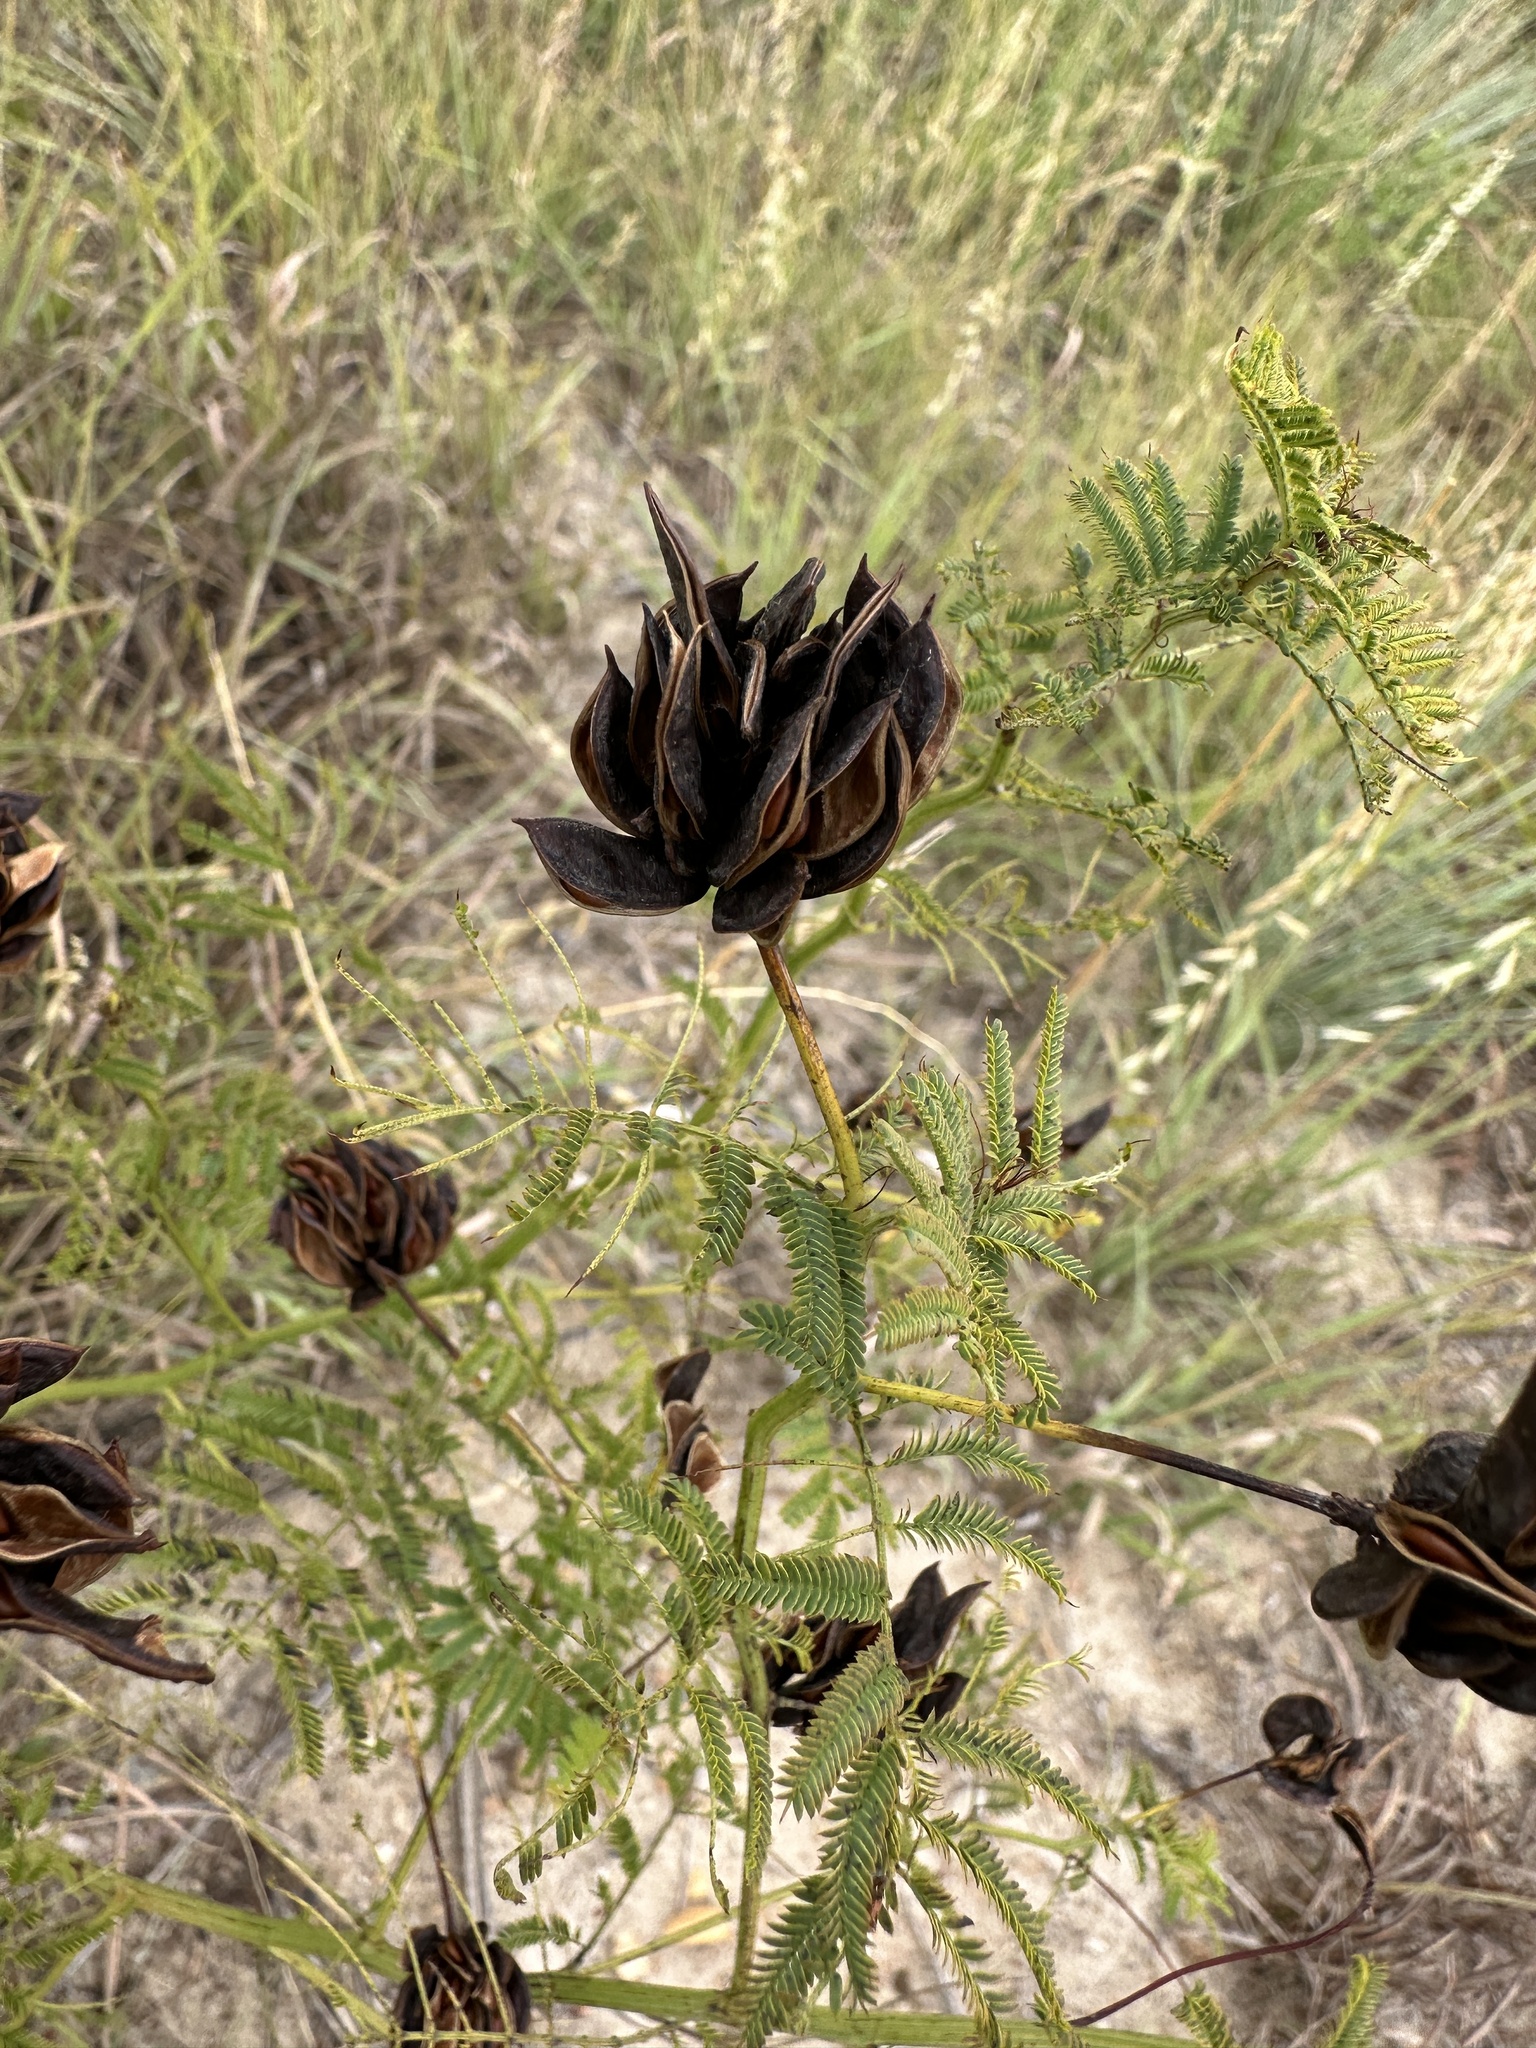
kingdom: Plantae
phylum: Tracheophyta
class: Magnoliopsida
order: Fabales
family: Fabaceae
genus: Desmanthus
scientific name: Desmanthus illinoensis
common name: Illinois bundle-flower
